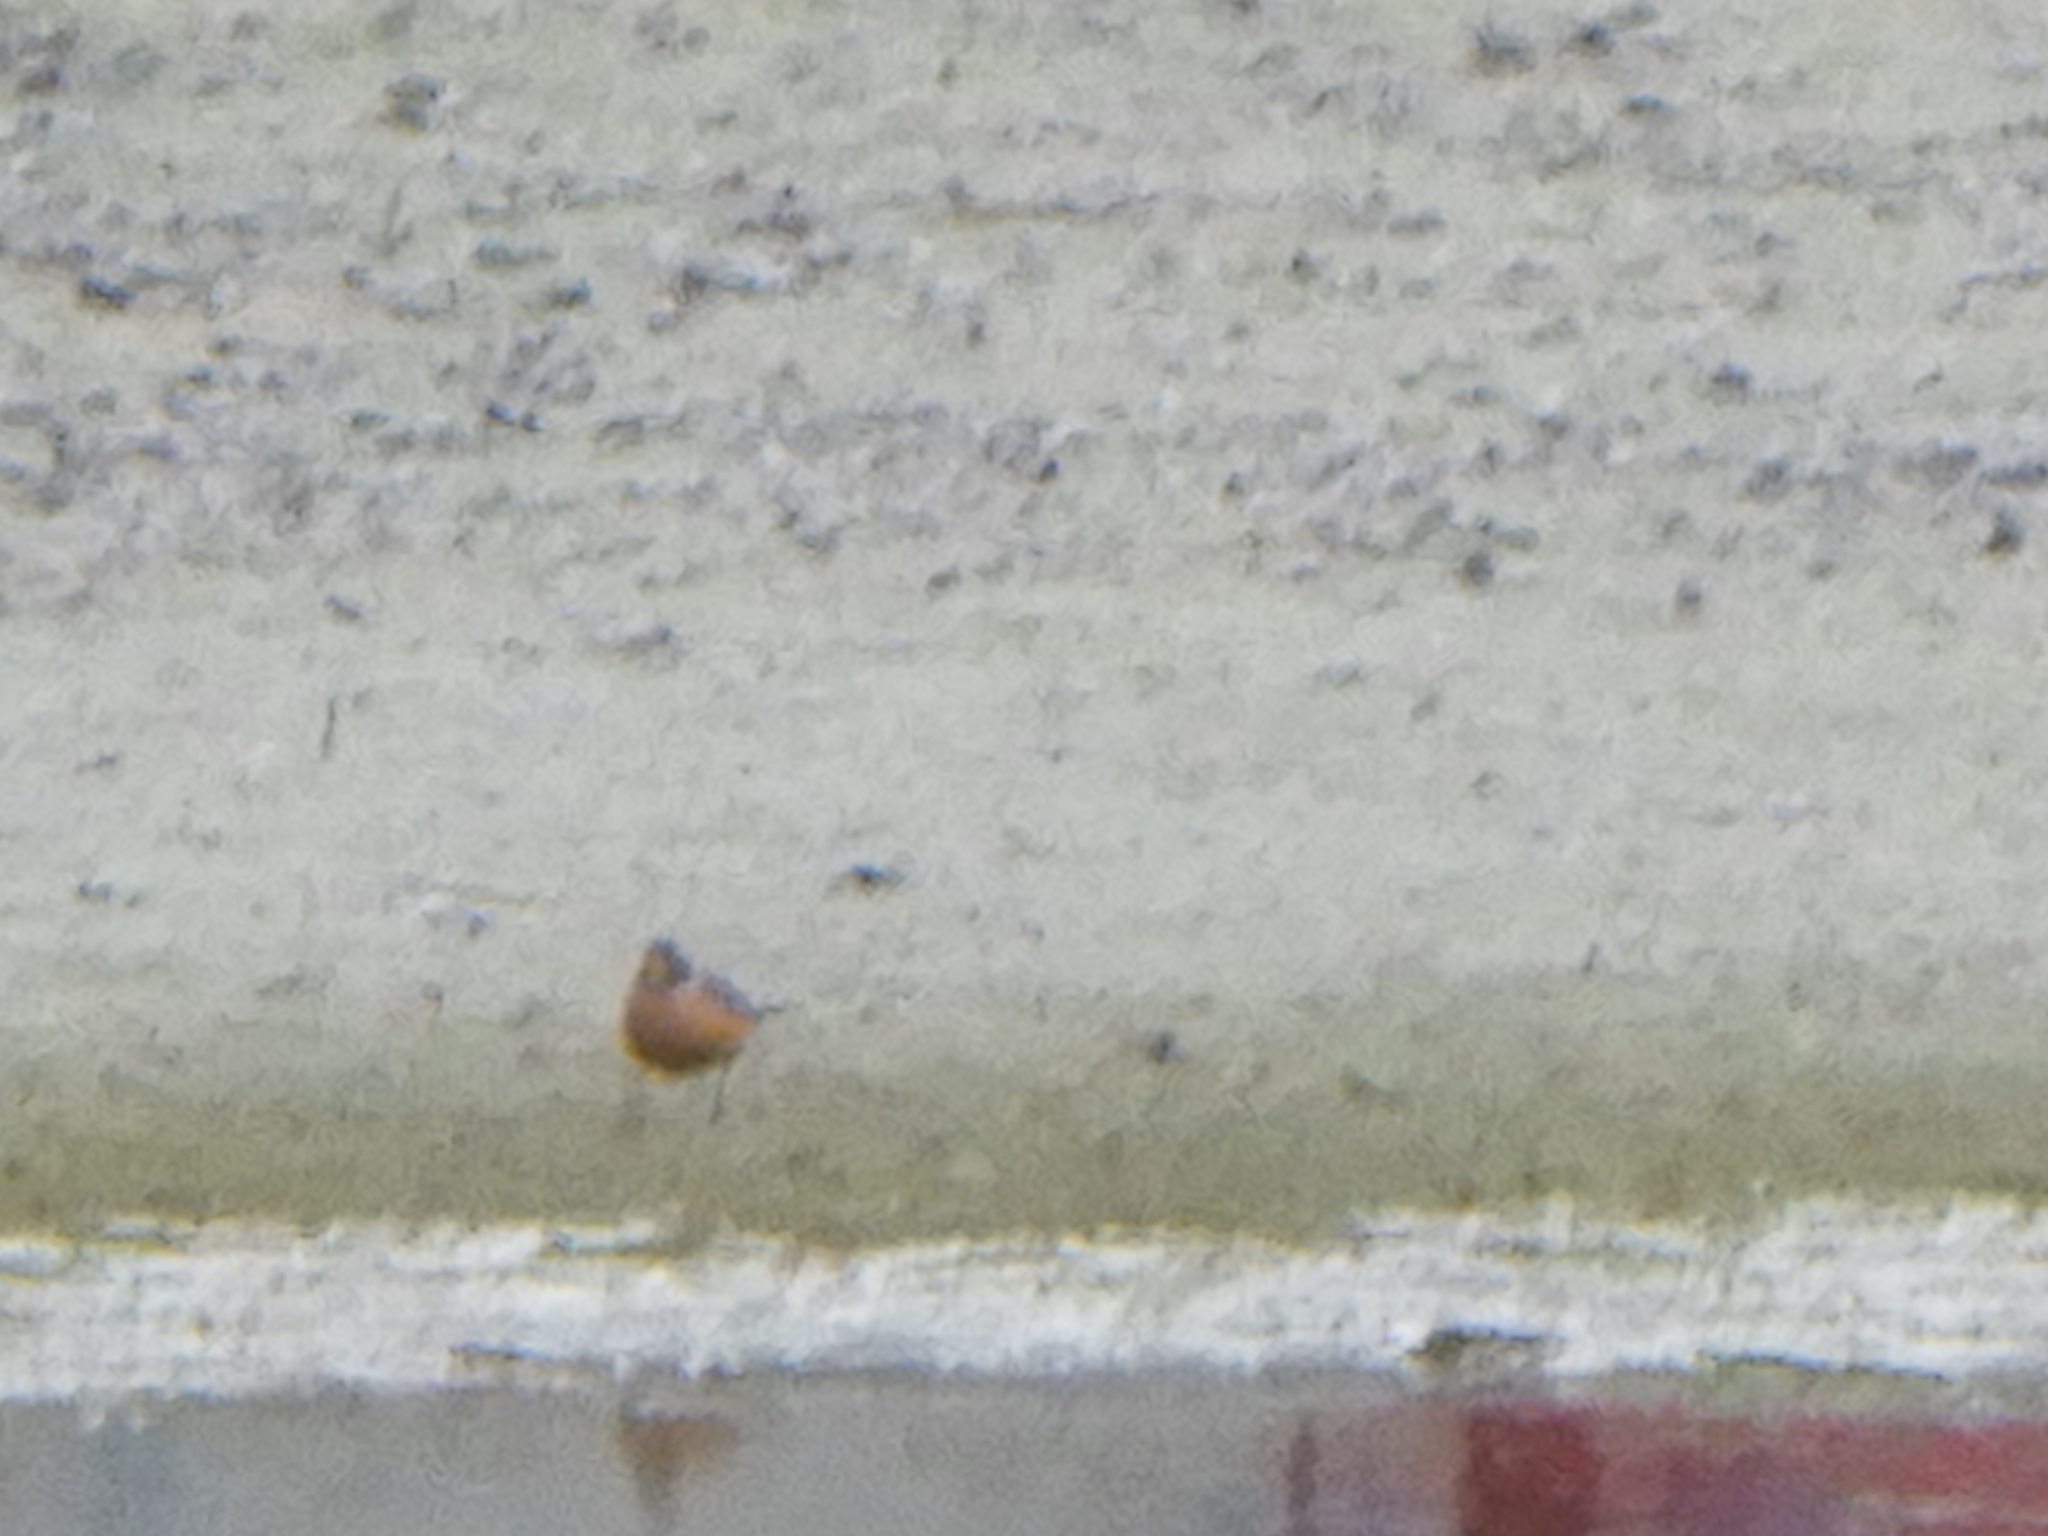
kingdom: Animalia
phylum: Chordata
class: Aves
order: Passeriformes
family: Turdidae
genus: Turdus
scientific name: Turdus migratorius
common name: American robin
